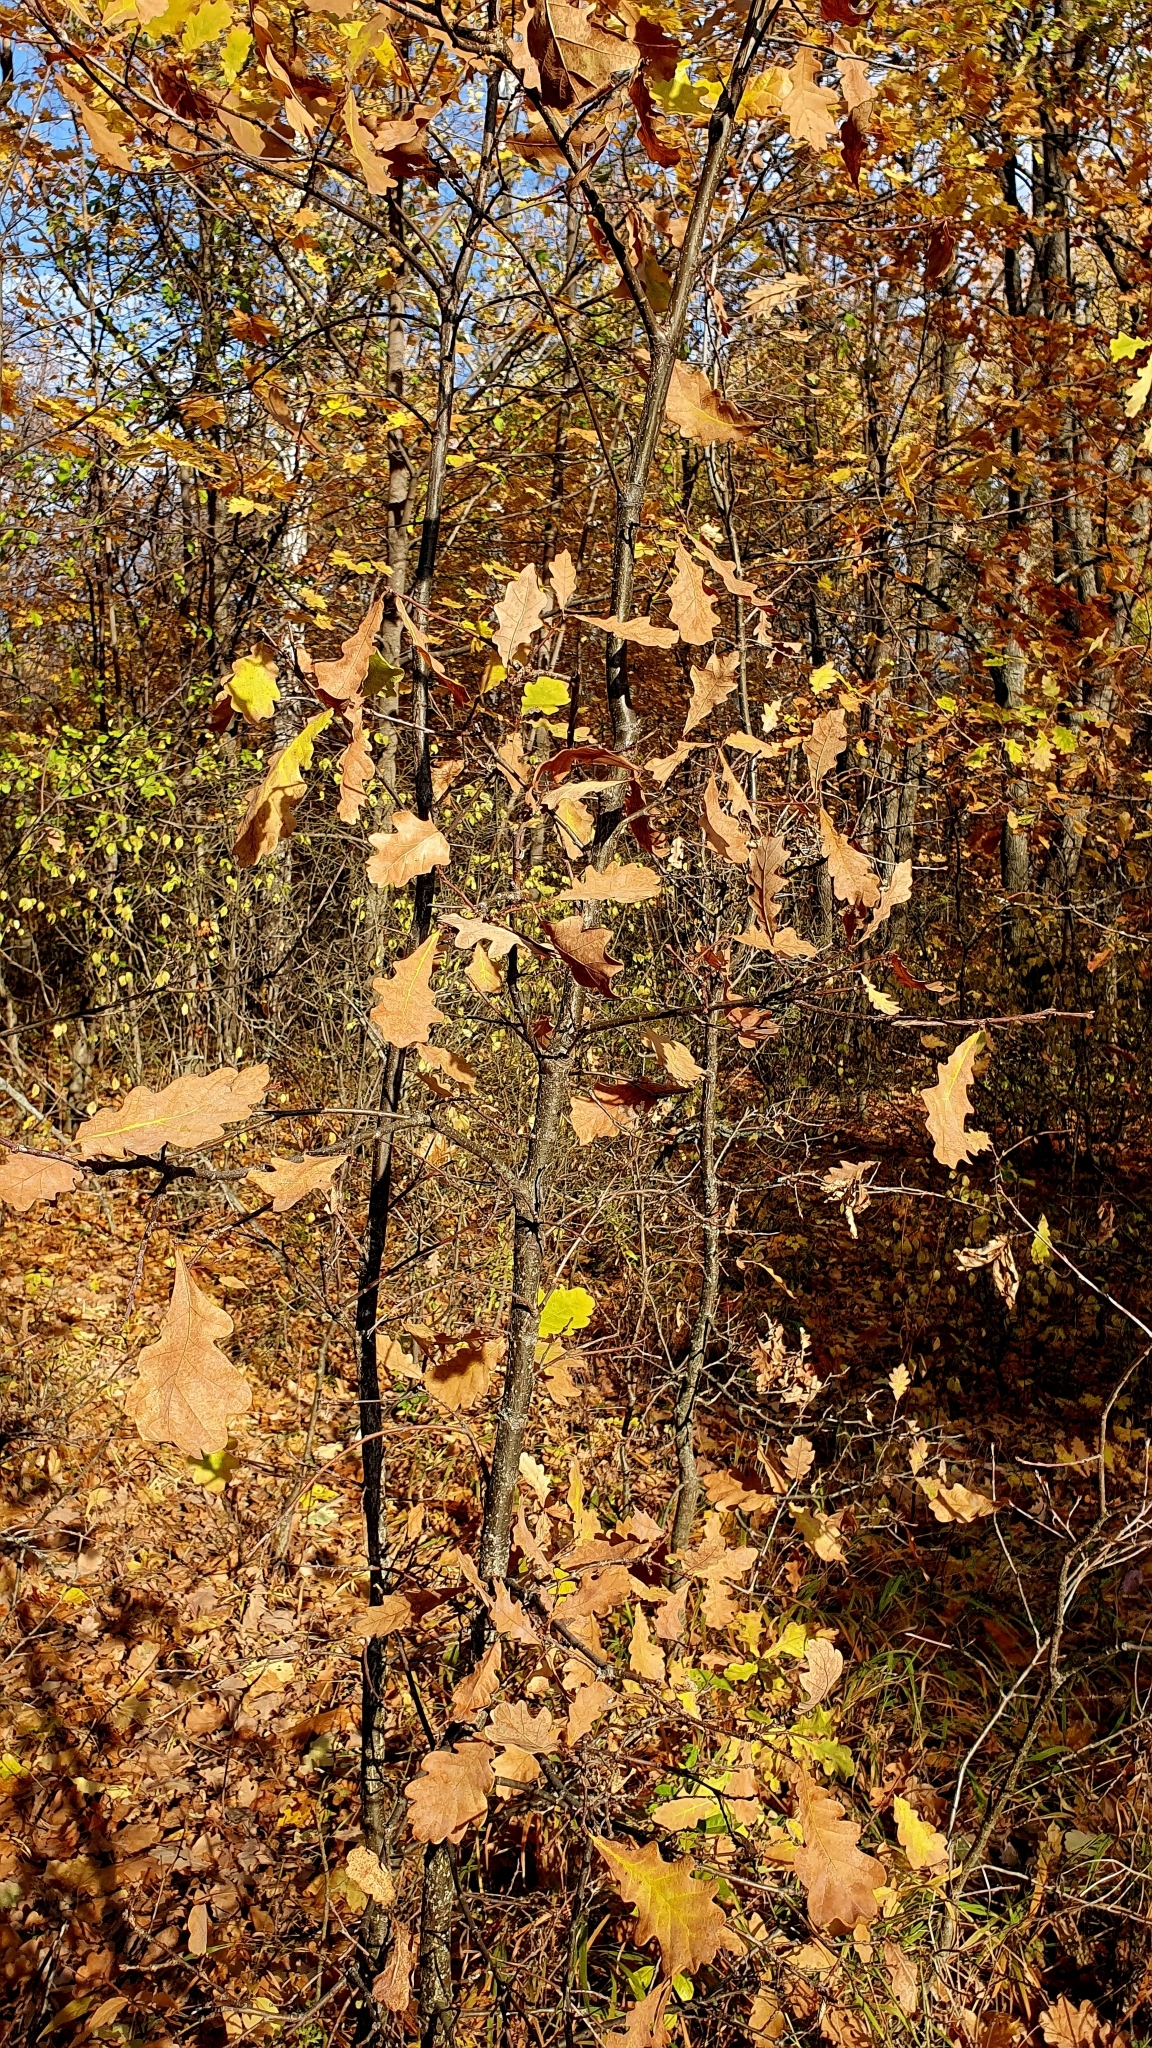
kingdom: Plantae
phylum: Tracheophyta
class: Magnoliopsida
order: Fagales
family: Fagaceae
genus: Quercus
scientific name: Quercus robur
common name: Pedunculate oak
